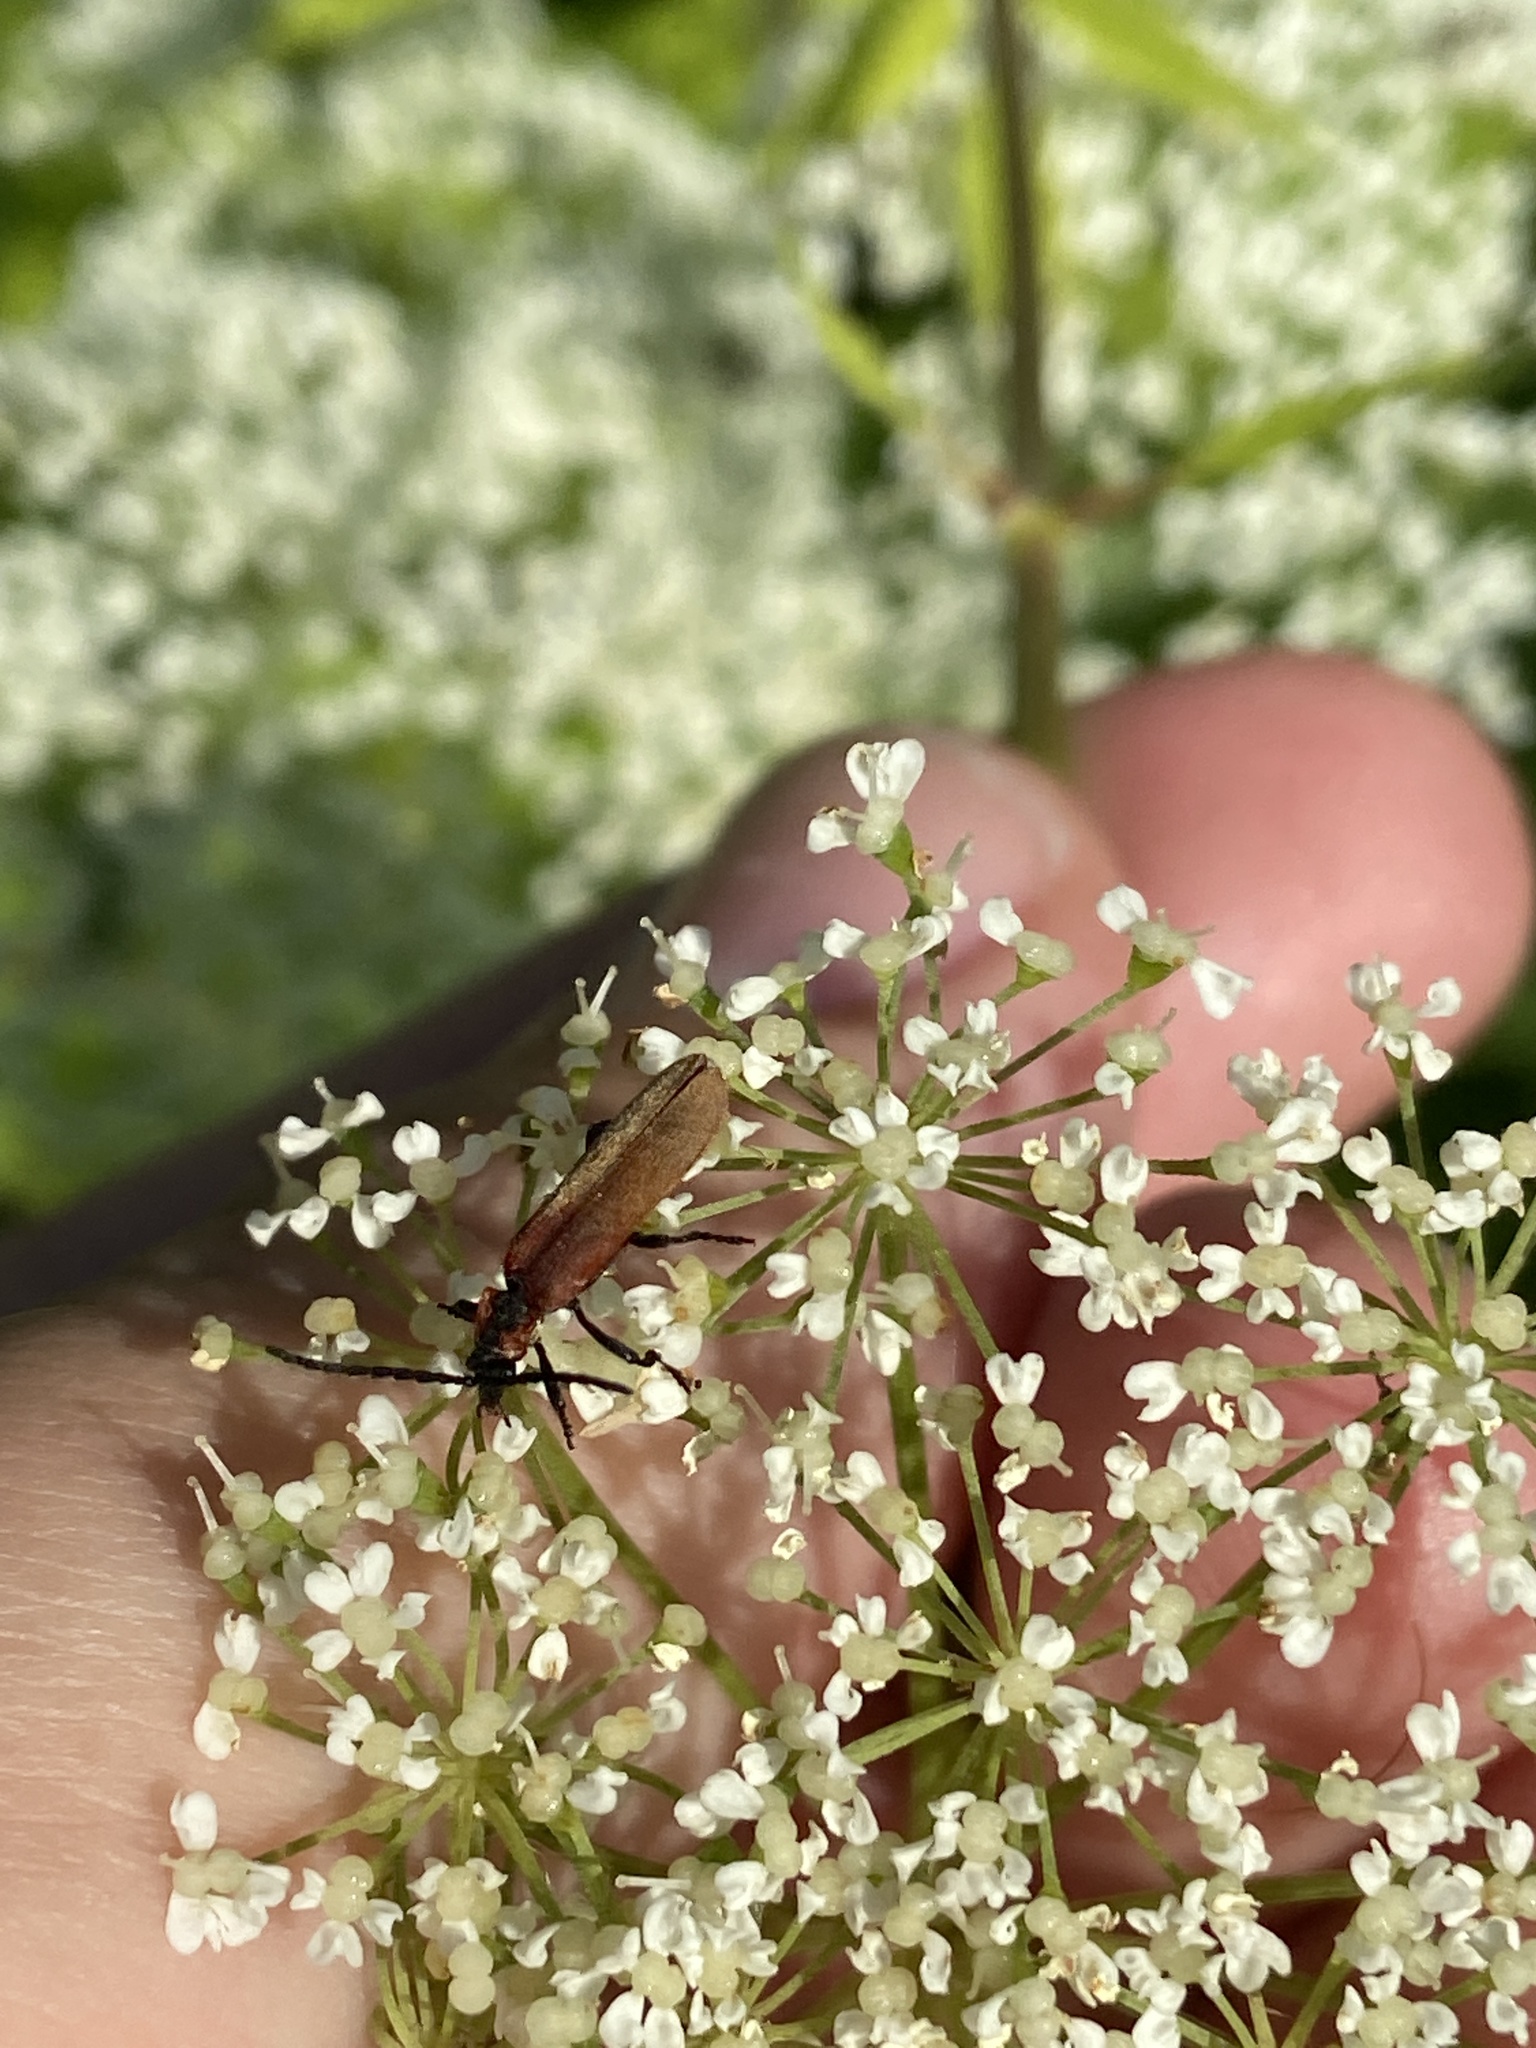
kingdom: Animalia
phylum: Arthropoda
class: Insecta
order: Coleoptera
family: Lycidae
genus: Lygistopterus
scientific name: Lygistopterus sanguineus
